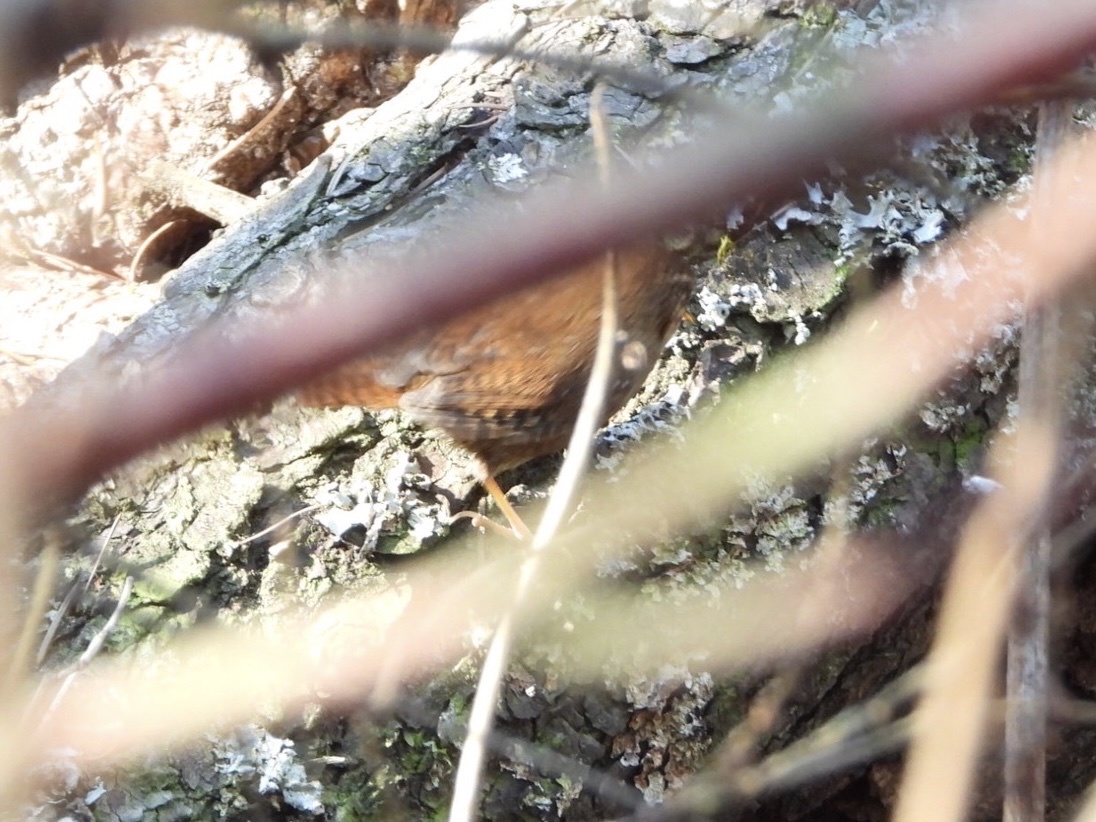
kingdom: Animalia
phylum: Chordata
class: Aves
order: Passeriformes
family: Troglodytidae
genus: Troglodytes
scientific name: Troglodytes pacificus
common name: Pacific wren
